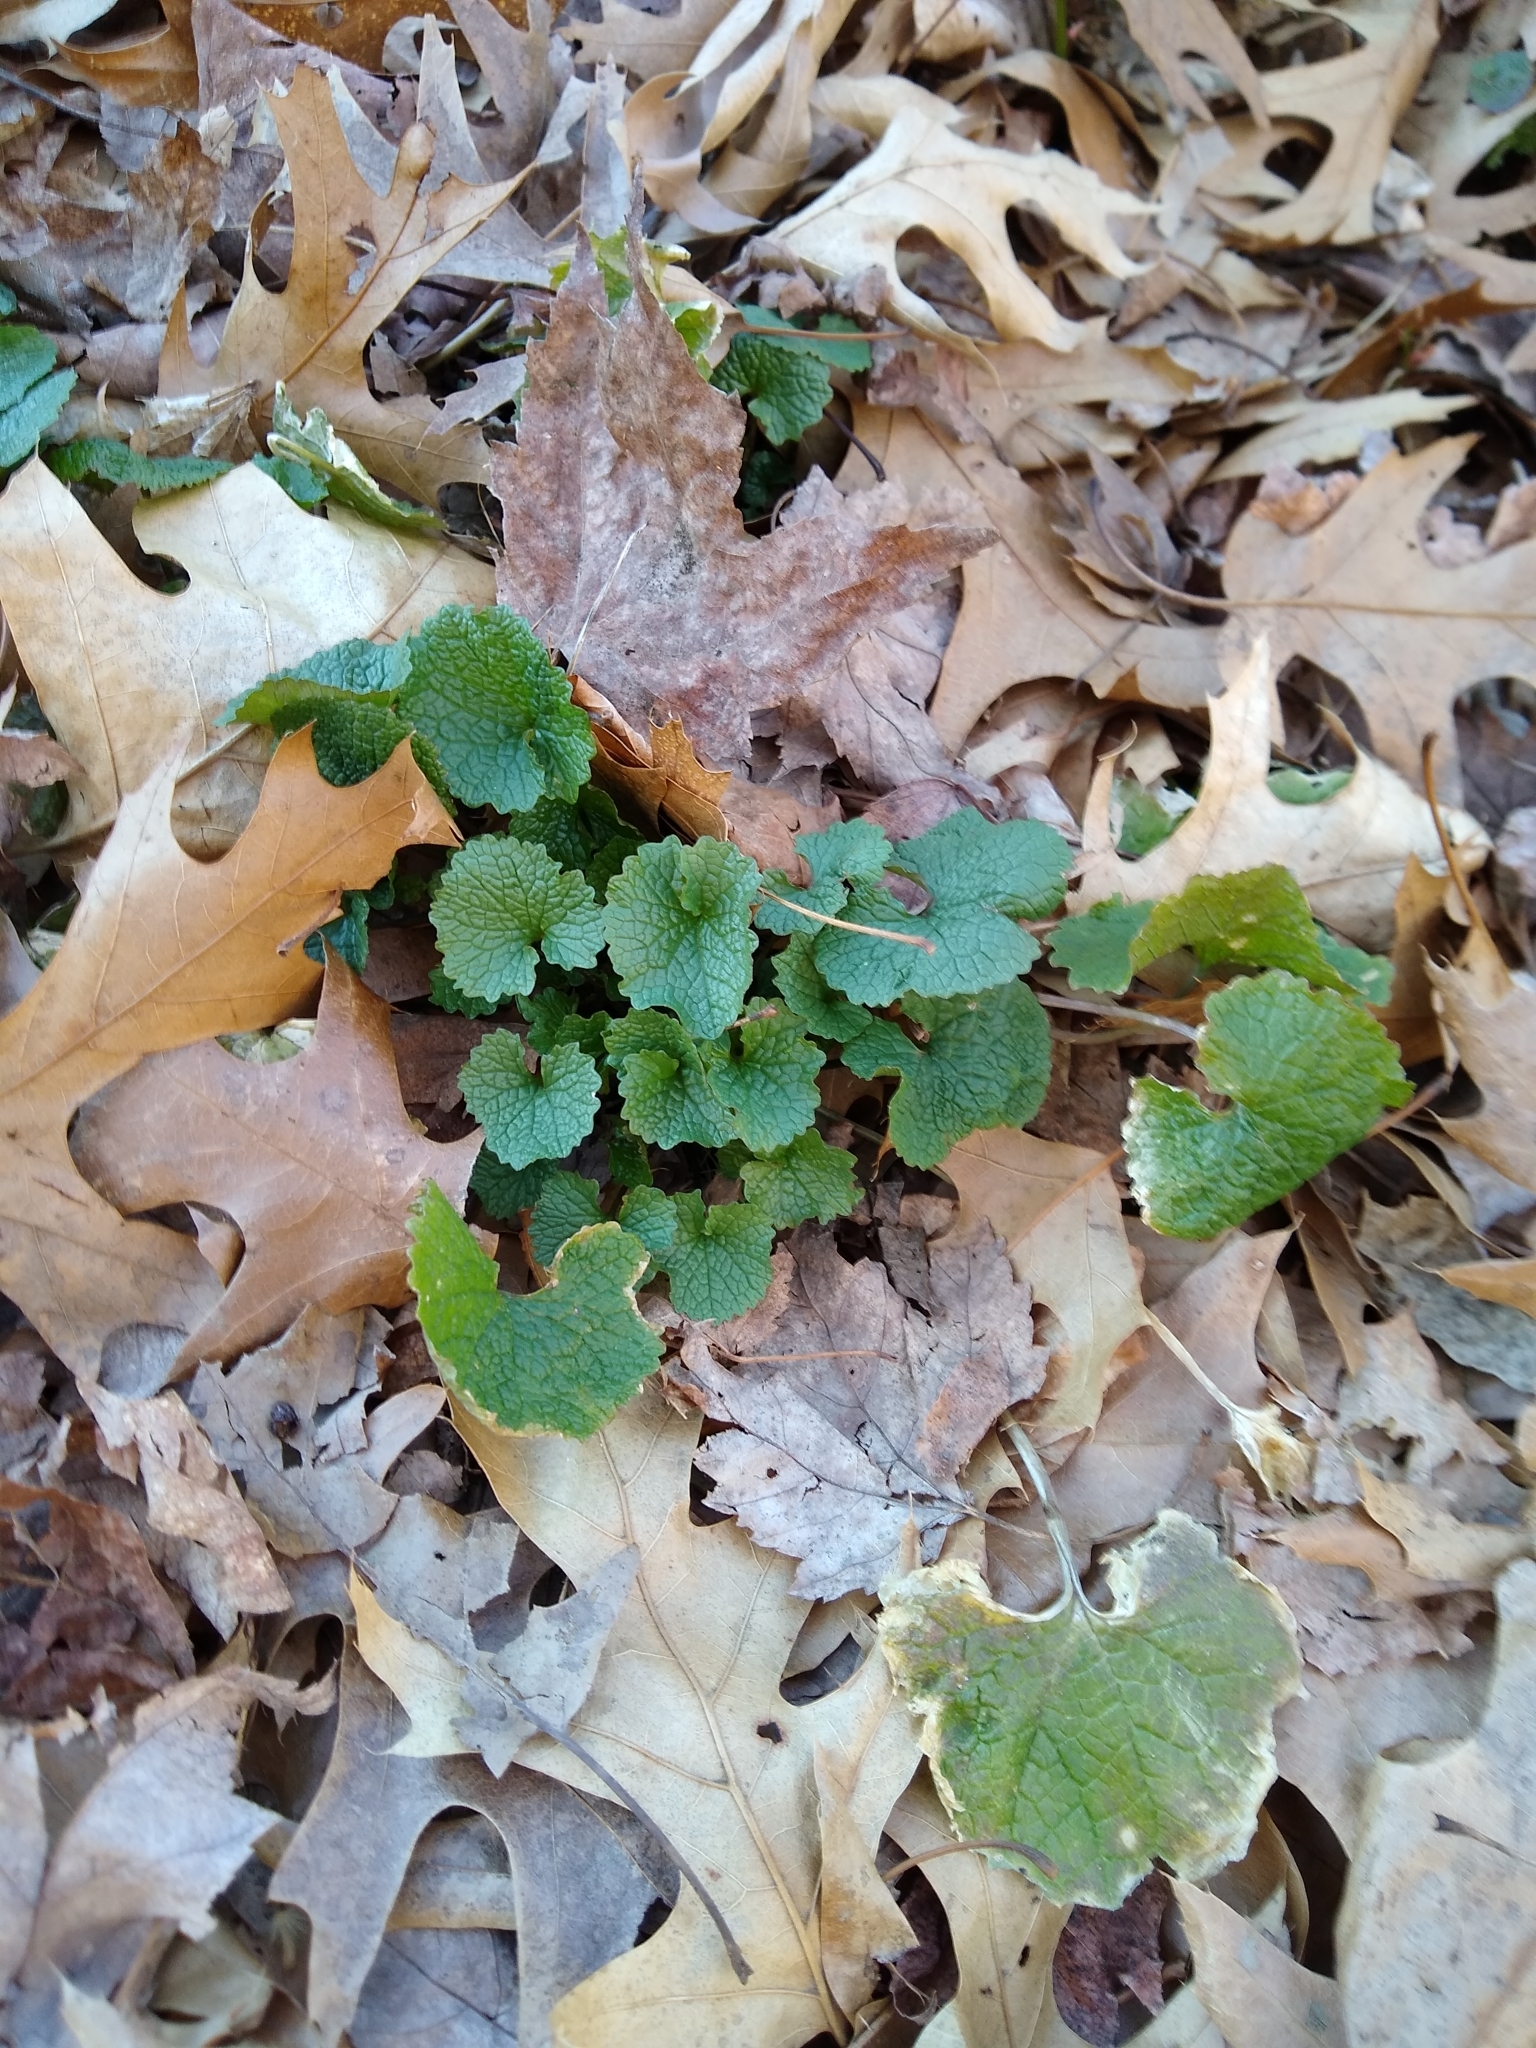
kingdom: Plantae
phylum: Tracheophyta
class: Magnoliopsida
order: Brassicales
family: Brassicaceae
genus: Alliaria
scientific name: Alliaria petiolata
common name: Garlic mustard
